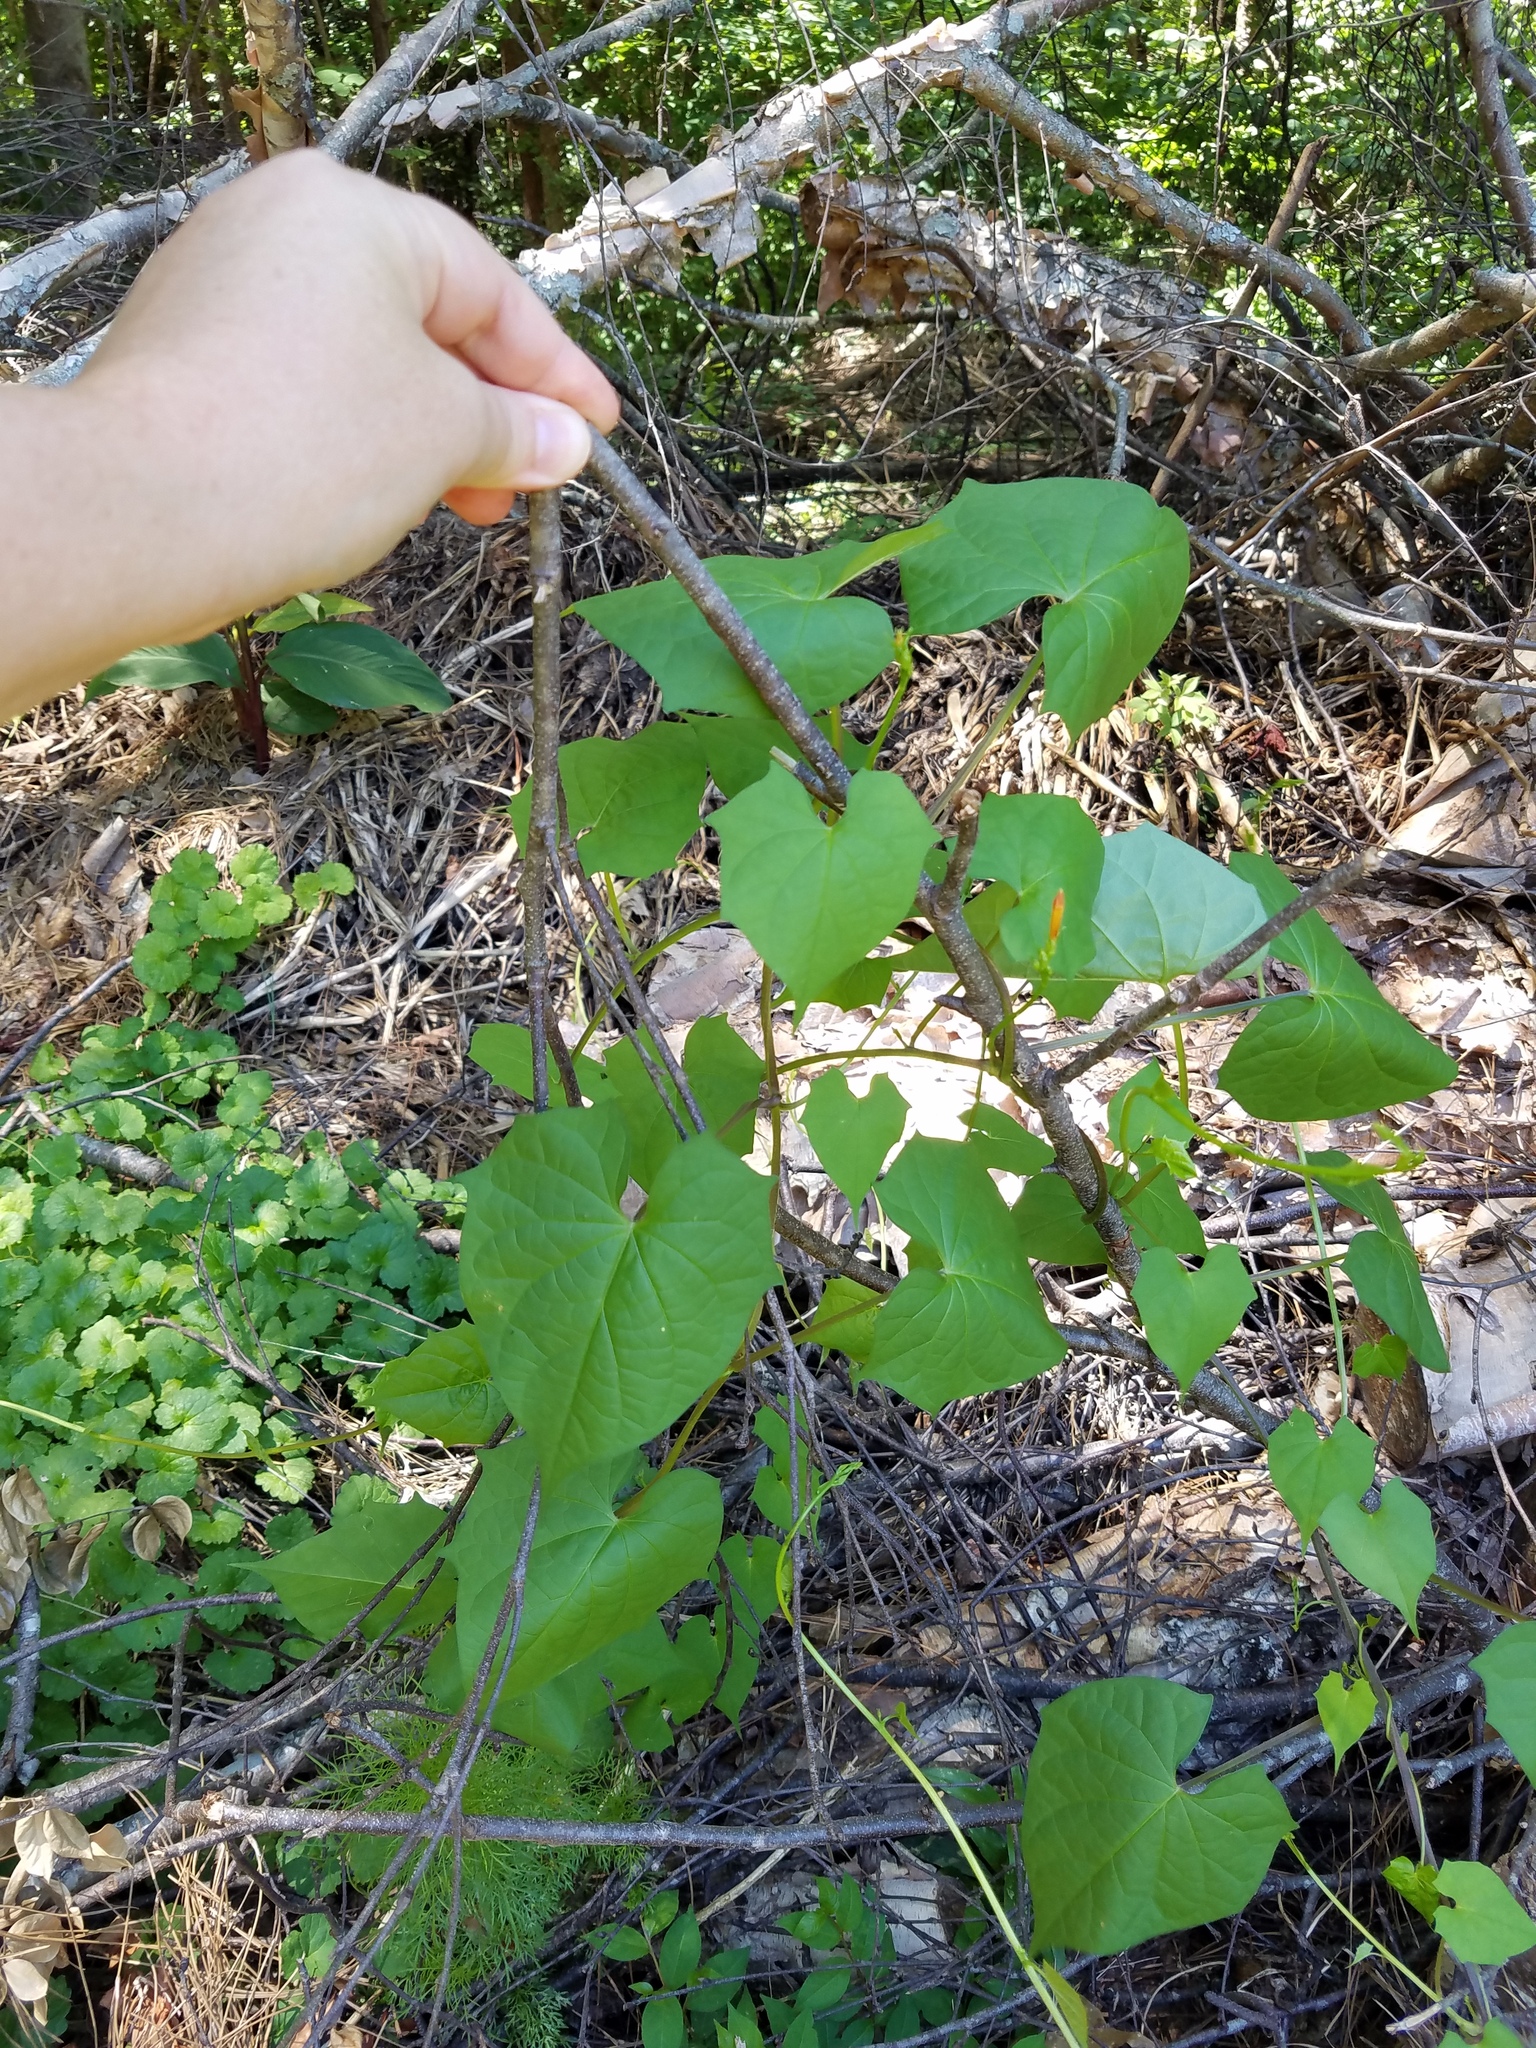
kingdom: Plantae
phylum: Tracheophyta
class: Magnoliopsida
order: Solanales
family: Convolvulaceae
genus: Ipomoea
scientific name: Ipomoea coccinea
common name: Red morning-glory
